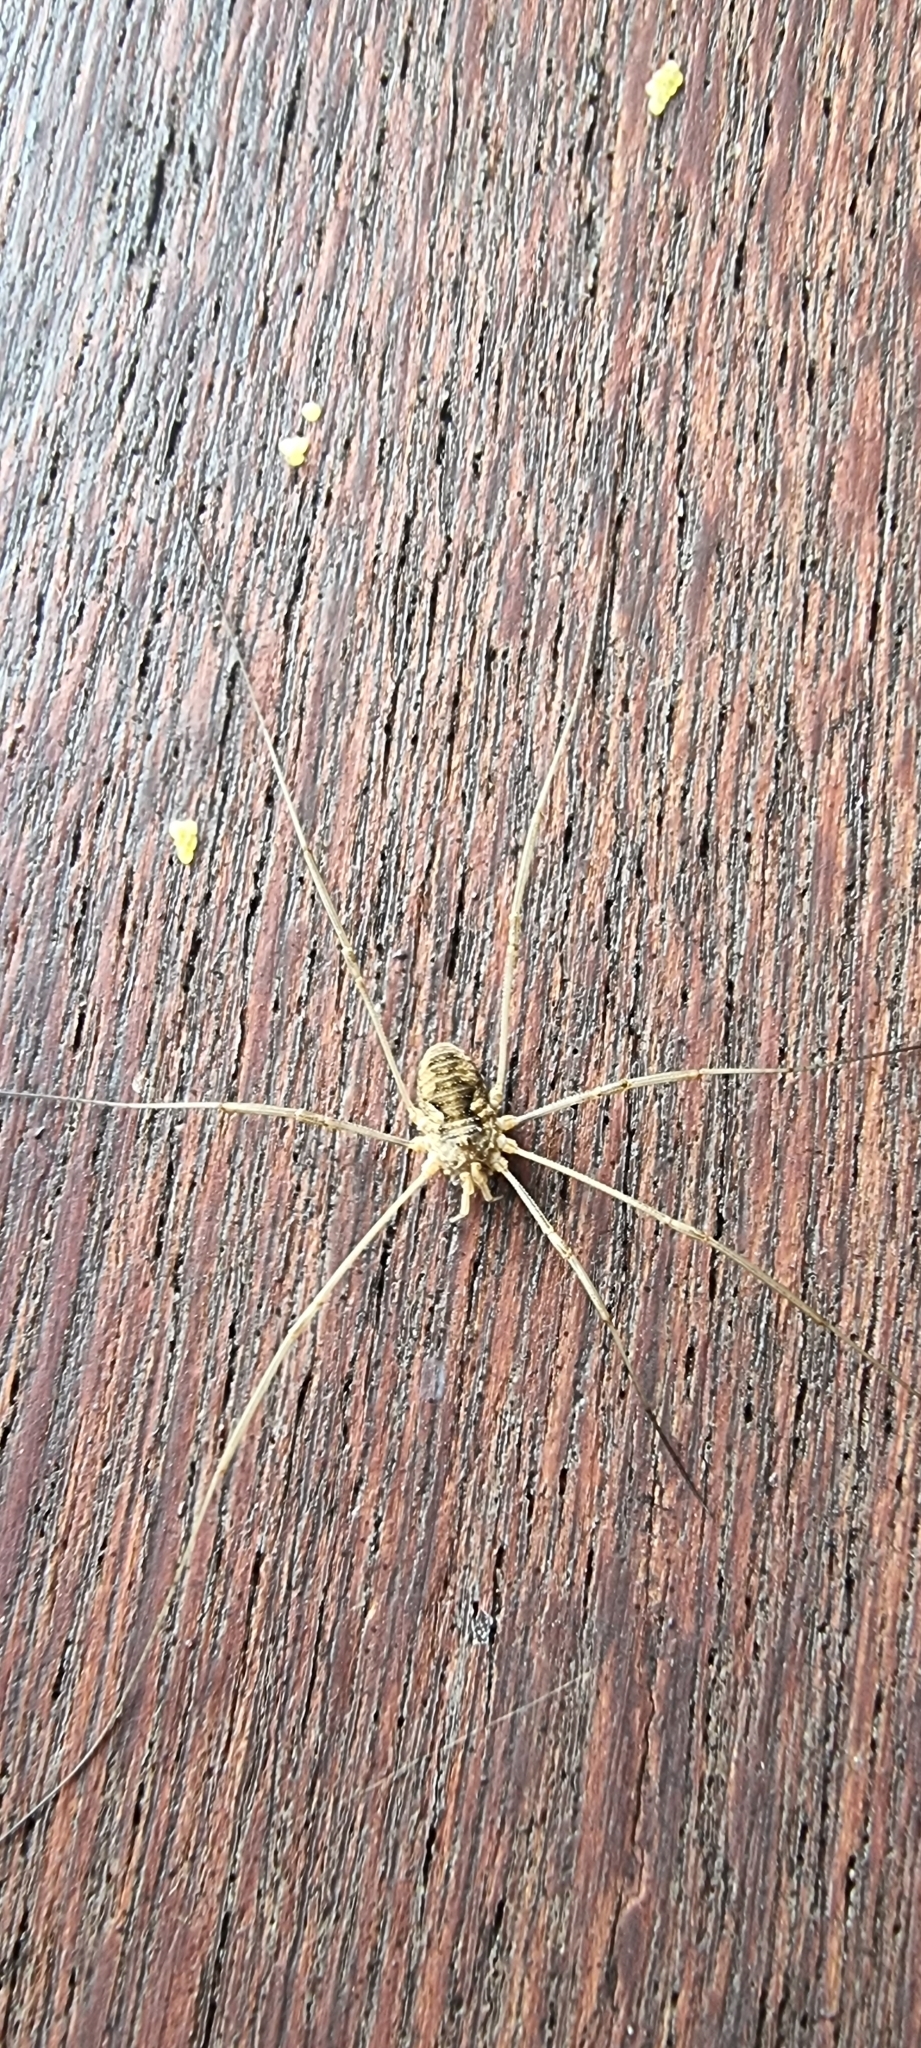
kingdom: Animalia
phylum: Arthropoda
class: Arachnida
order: Opiliones
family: Phalangiidae
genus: Phalangium
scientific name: Phalangium opilio
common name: Daddy longleg
